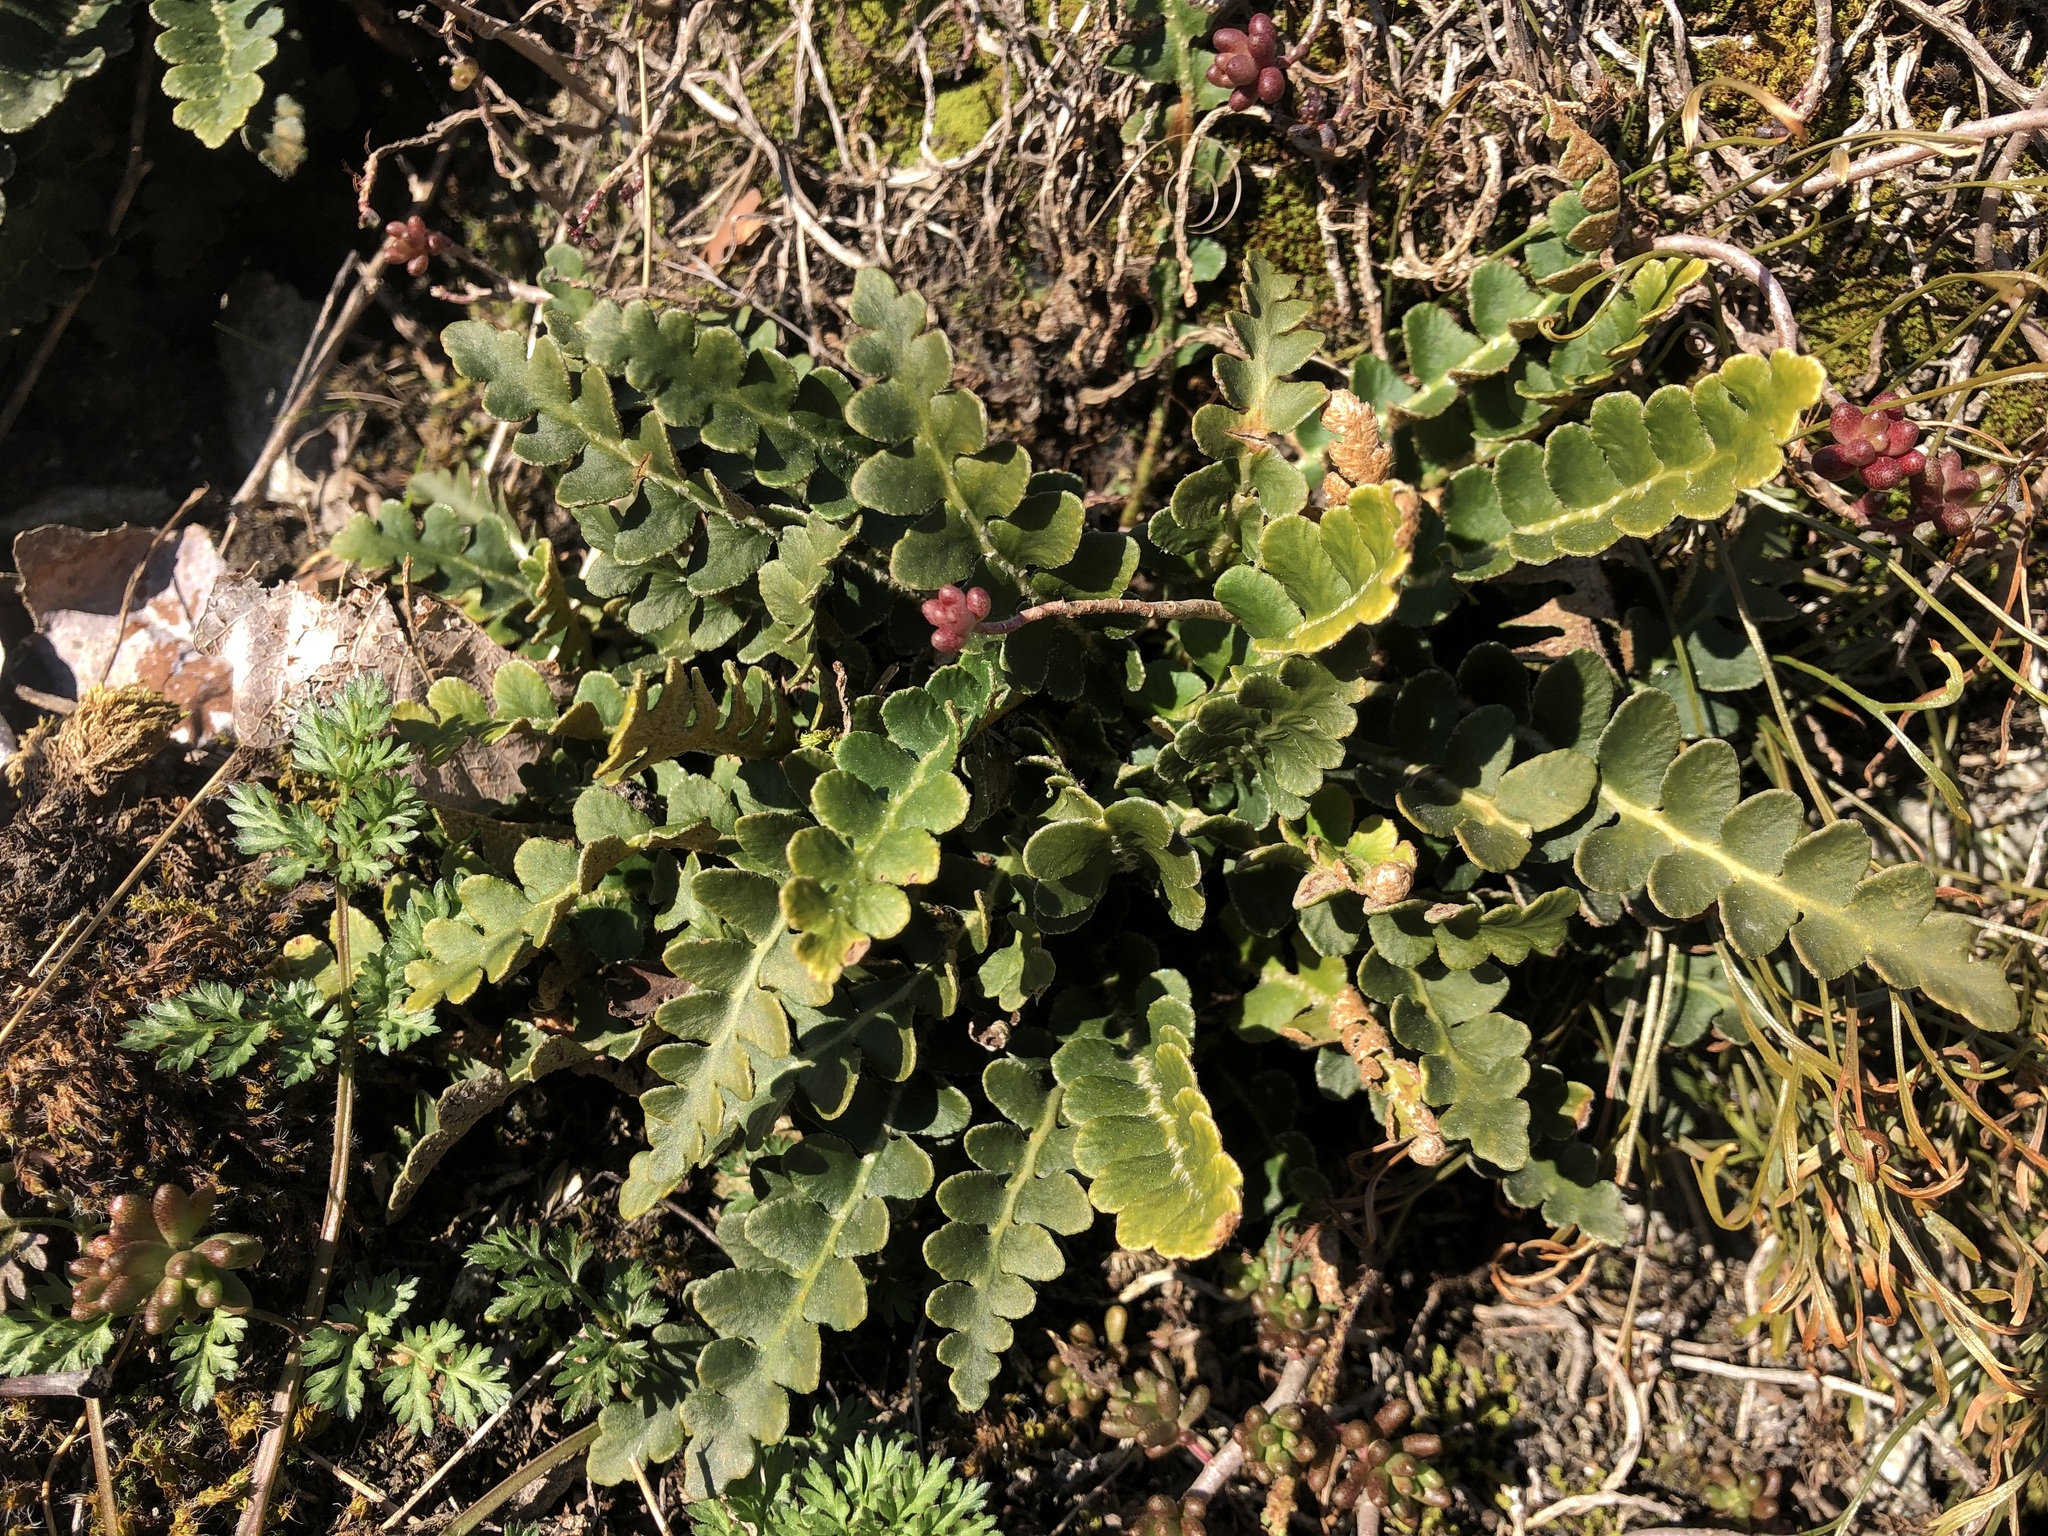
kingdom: Plantae
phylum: Tracheophyta
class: Polypodiopsida
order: Polypodiales
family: Aspleniaceae
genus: Asplenium
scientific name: Asplenium ceterach
